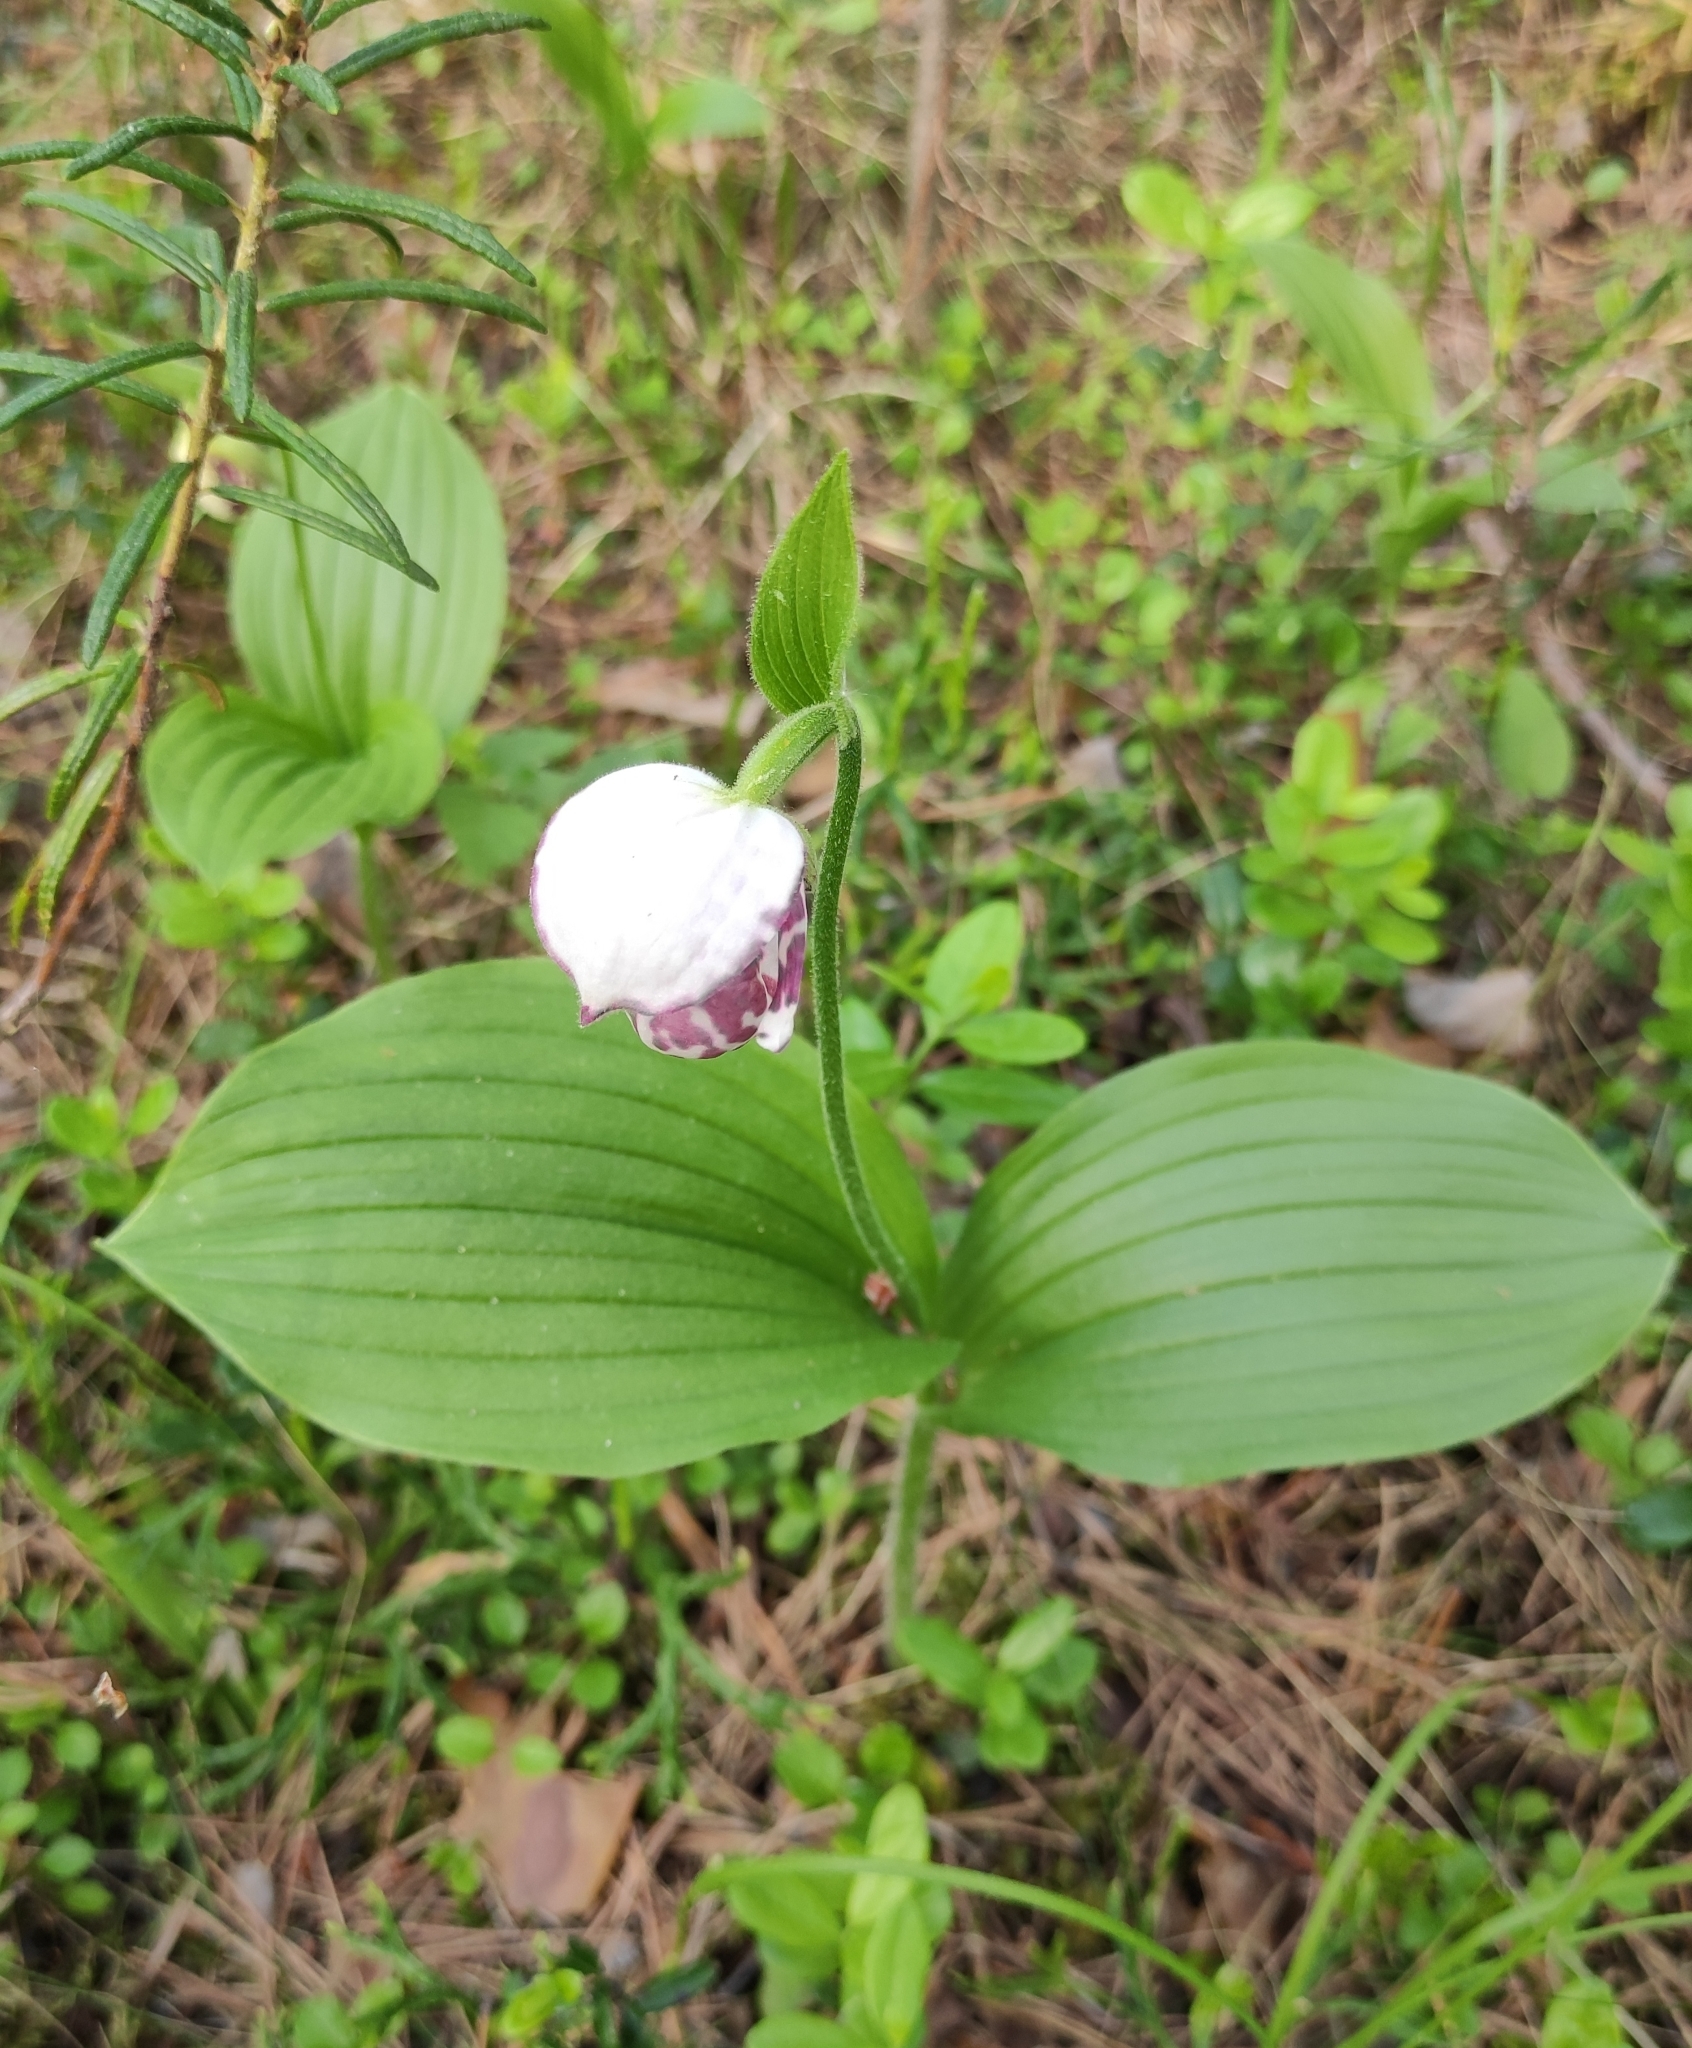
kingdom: Plantae
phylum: Tracheophyta
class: Liliopsida
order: Asparagales
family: Orchidaceae
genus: Cypripedium
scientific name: Cypripedium guttatum
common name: Pink lady slipper
